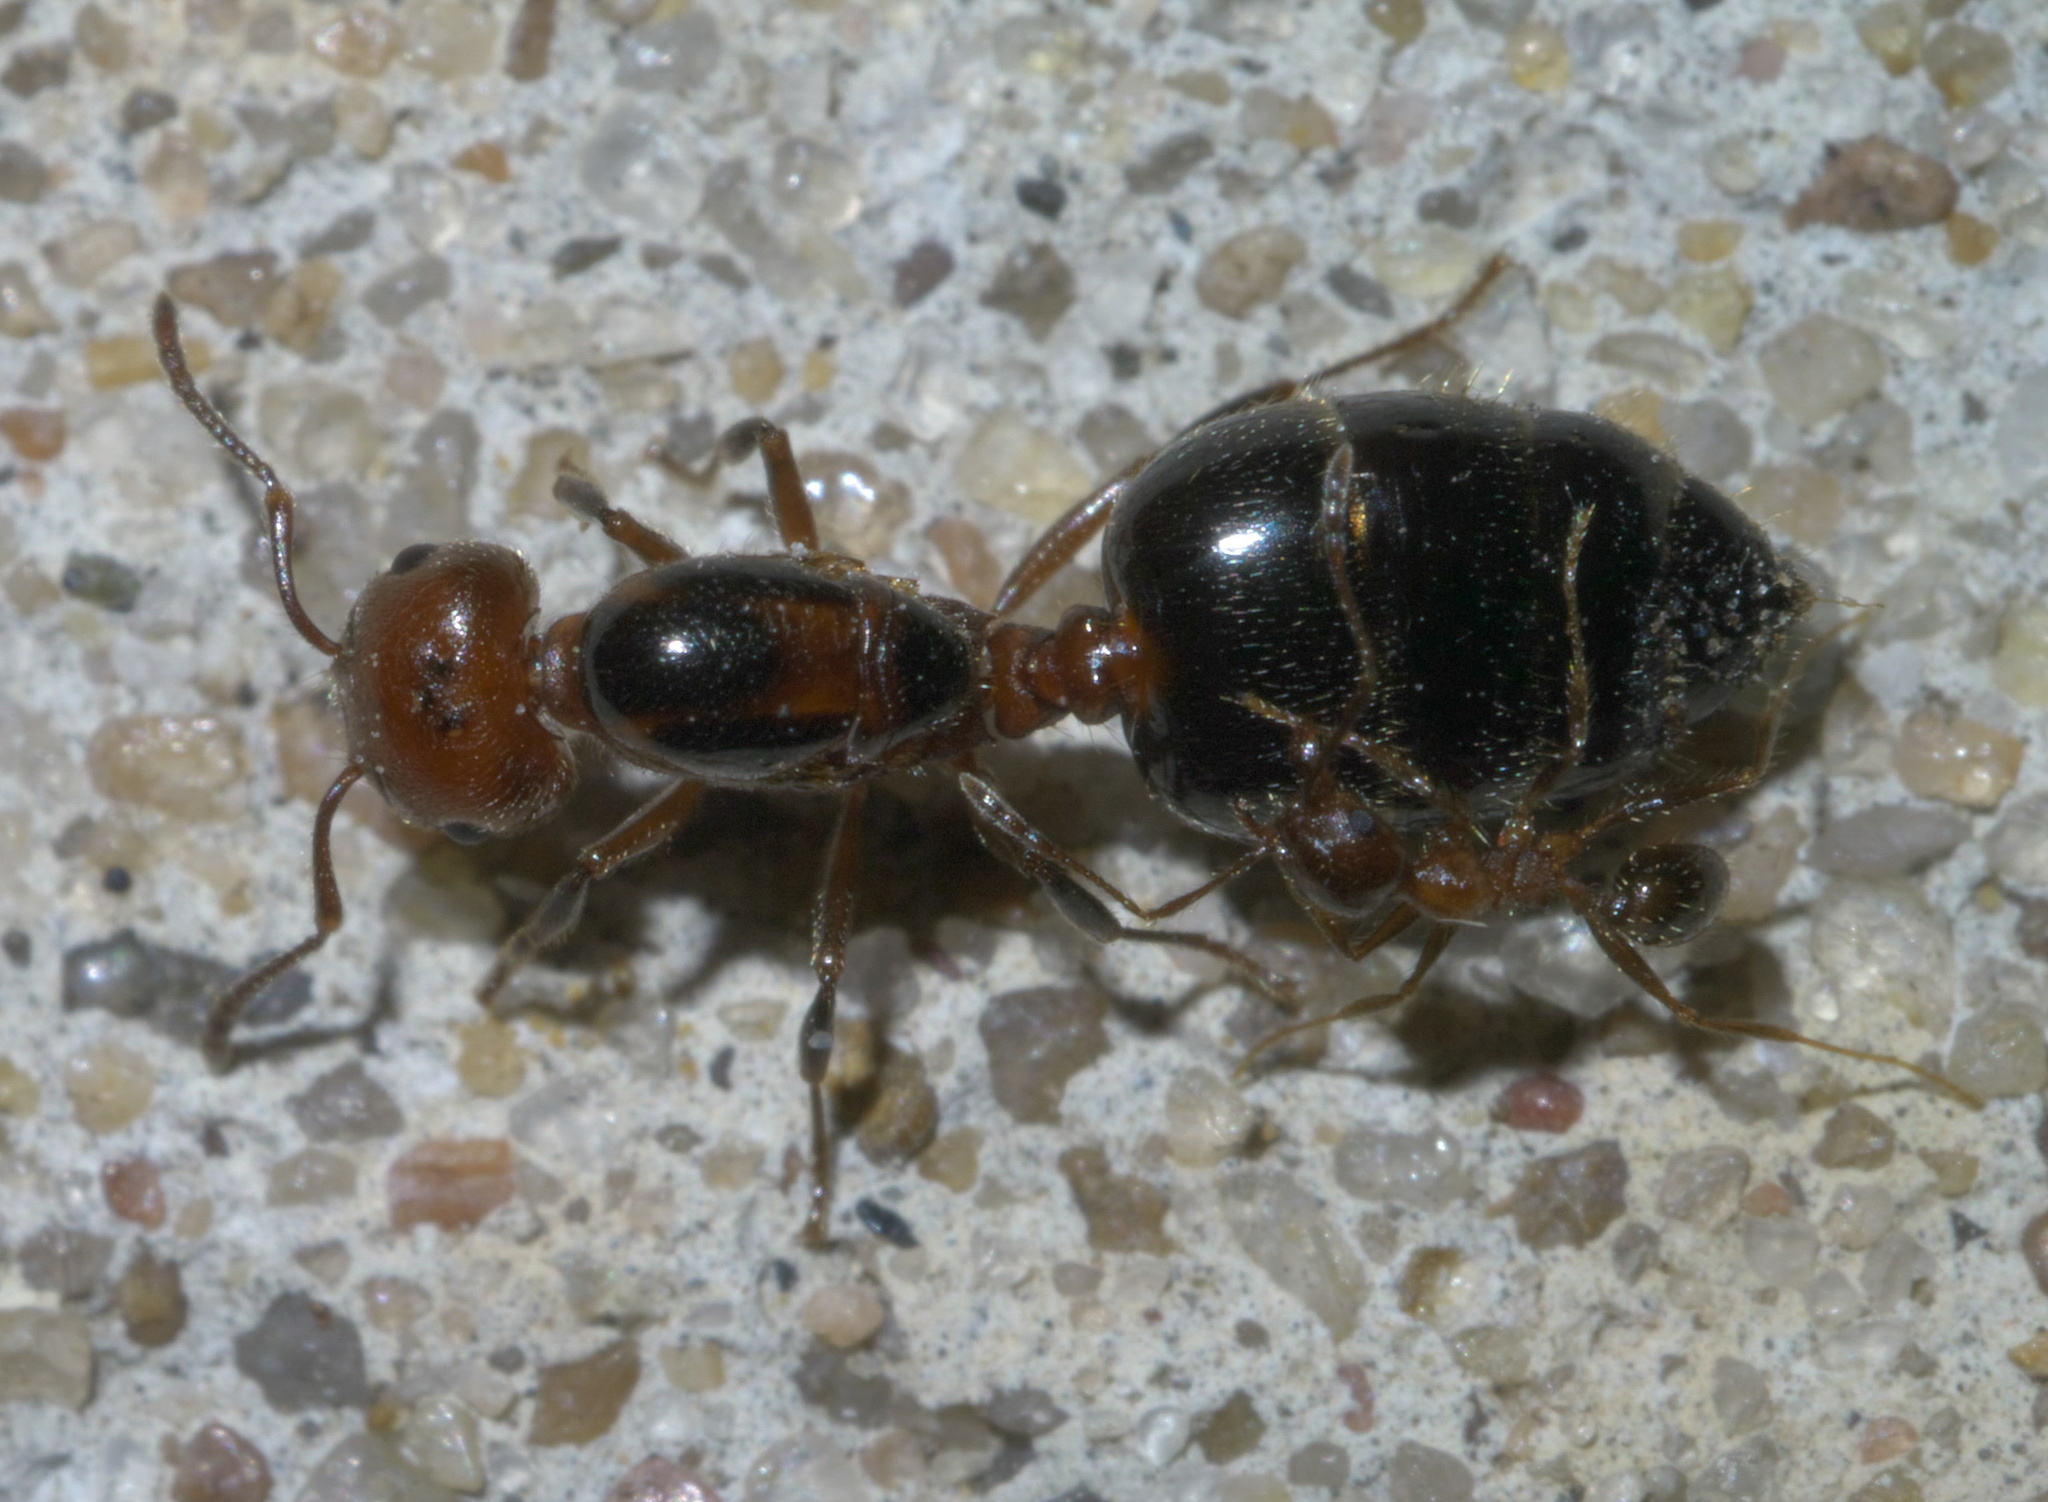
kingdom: Animalia
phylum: Arthropoda
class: Insecta
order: Hymenoptera
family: Formicidae
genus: Crematogaster
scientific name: Crematogaster laeviuscula
